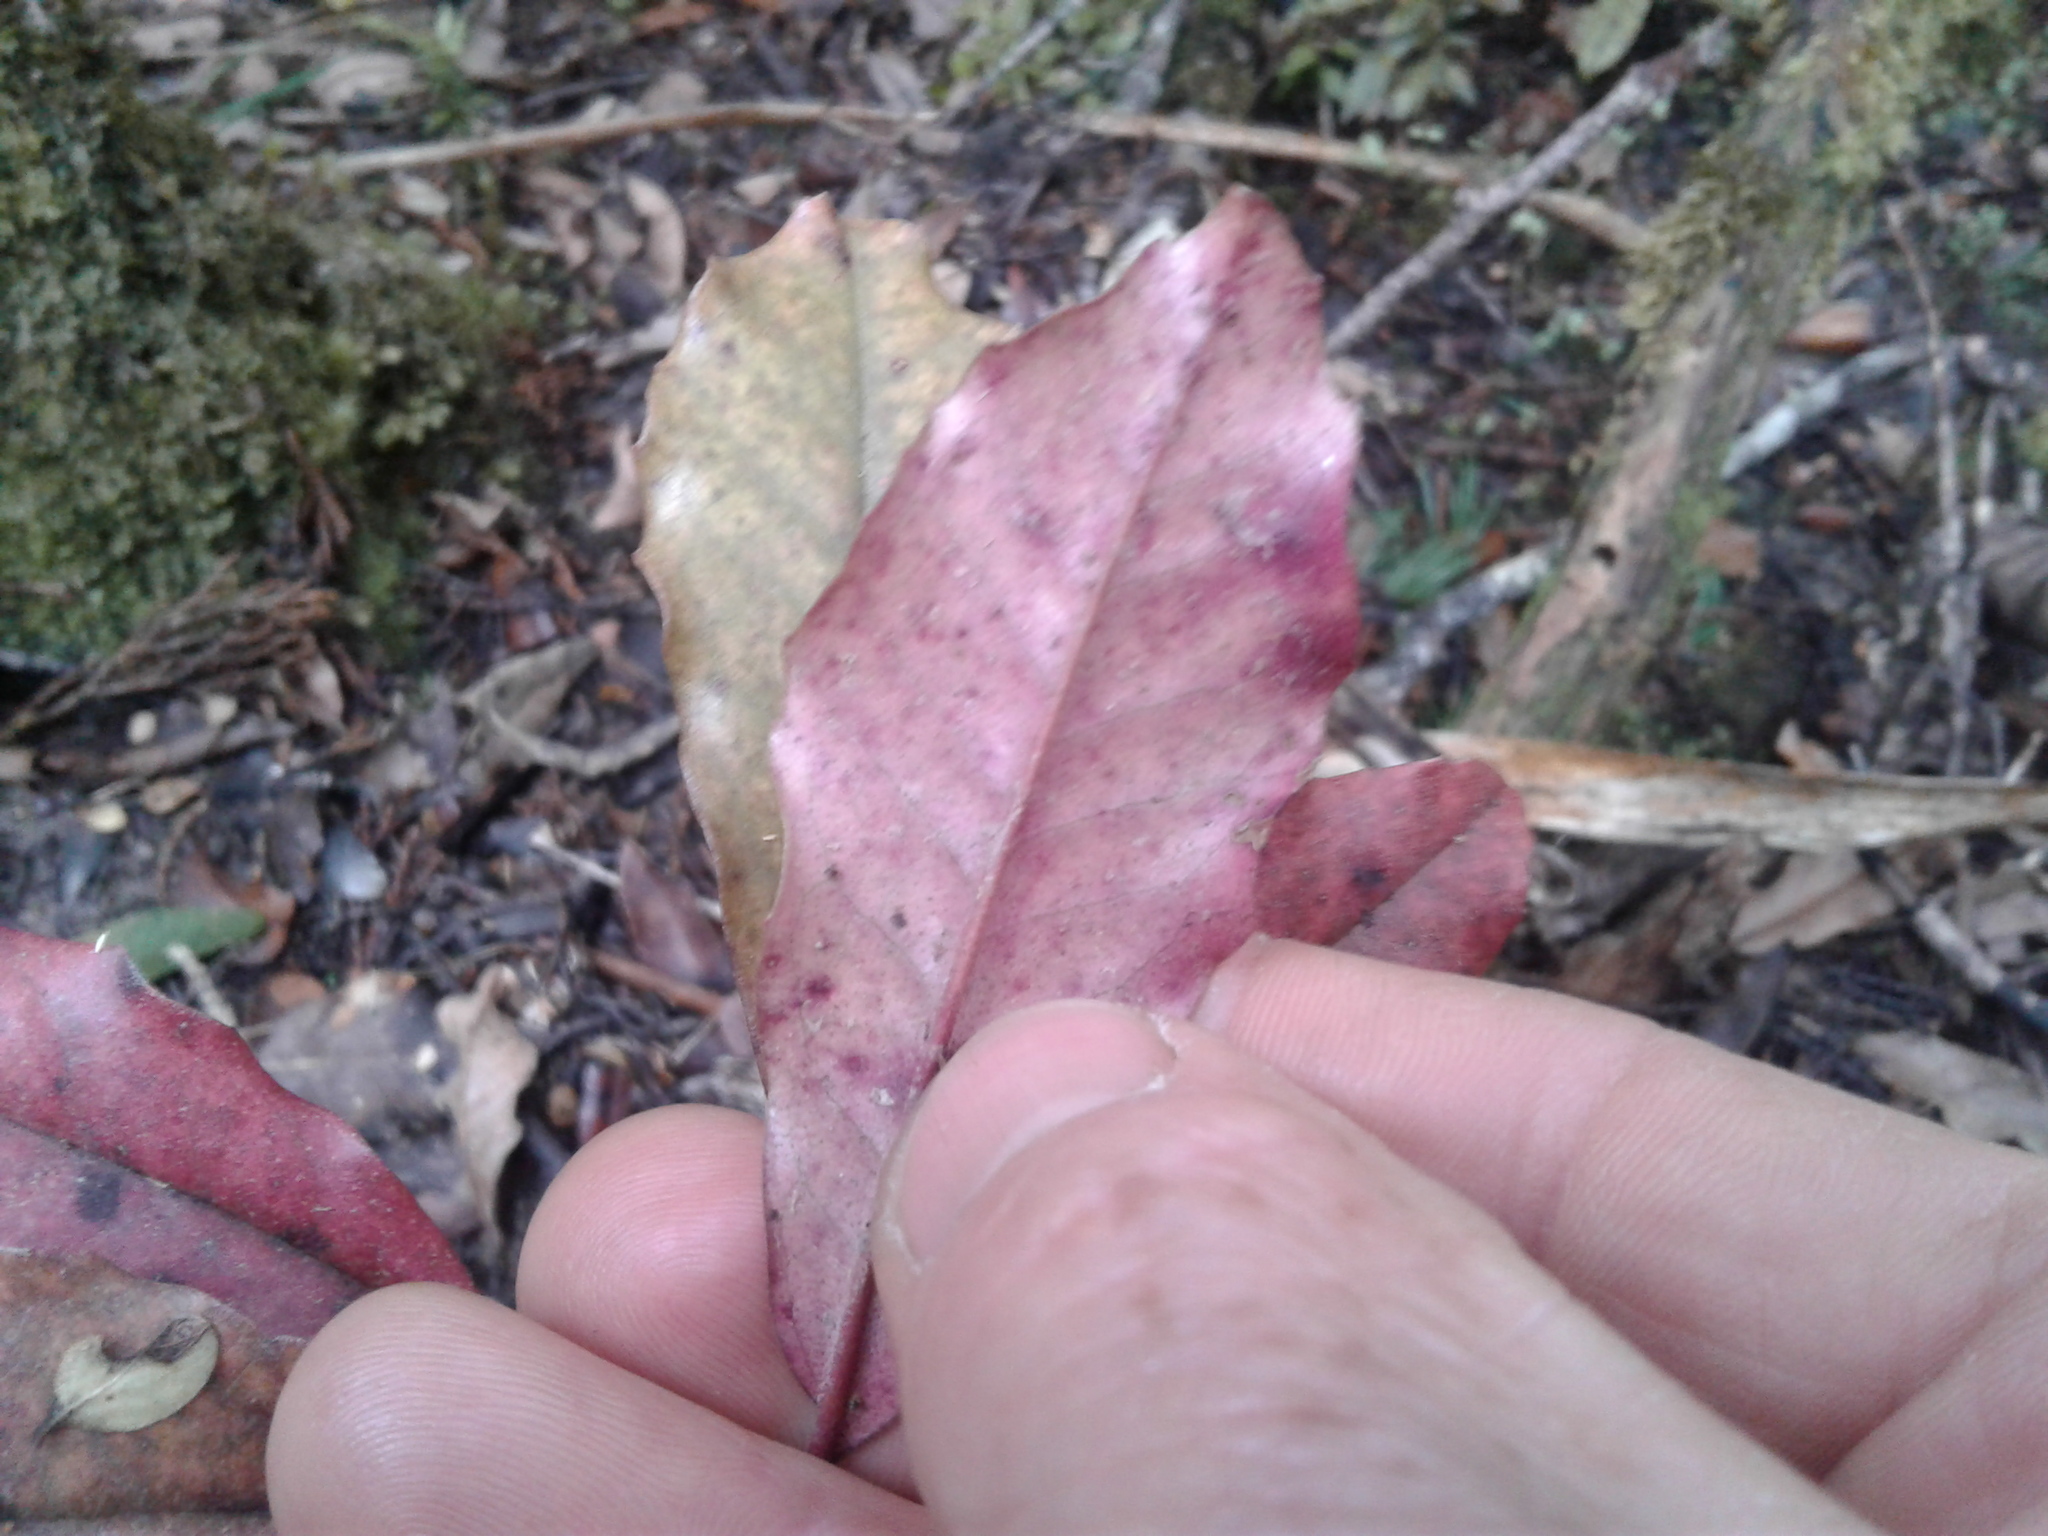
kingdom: Plantae
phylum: Tracheophyta
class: Magnoliopsida
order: Paracryphiales
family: Paracryphiaceae
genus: Quintinia
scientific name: Quintinia serrata
